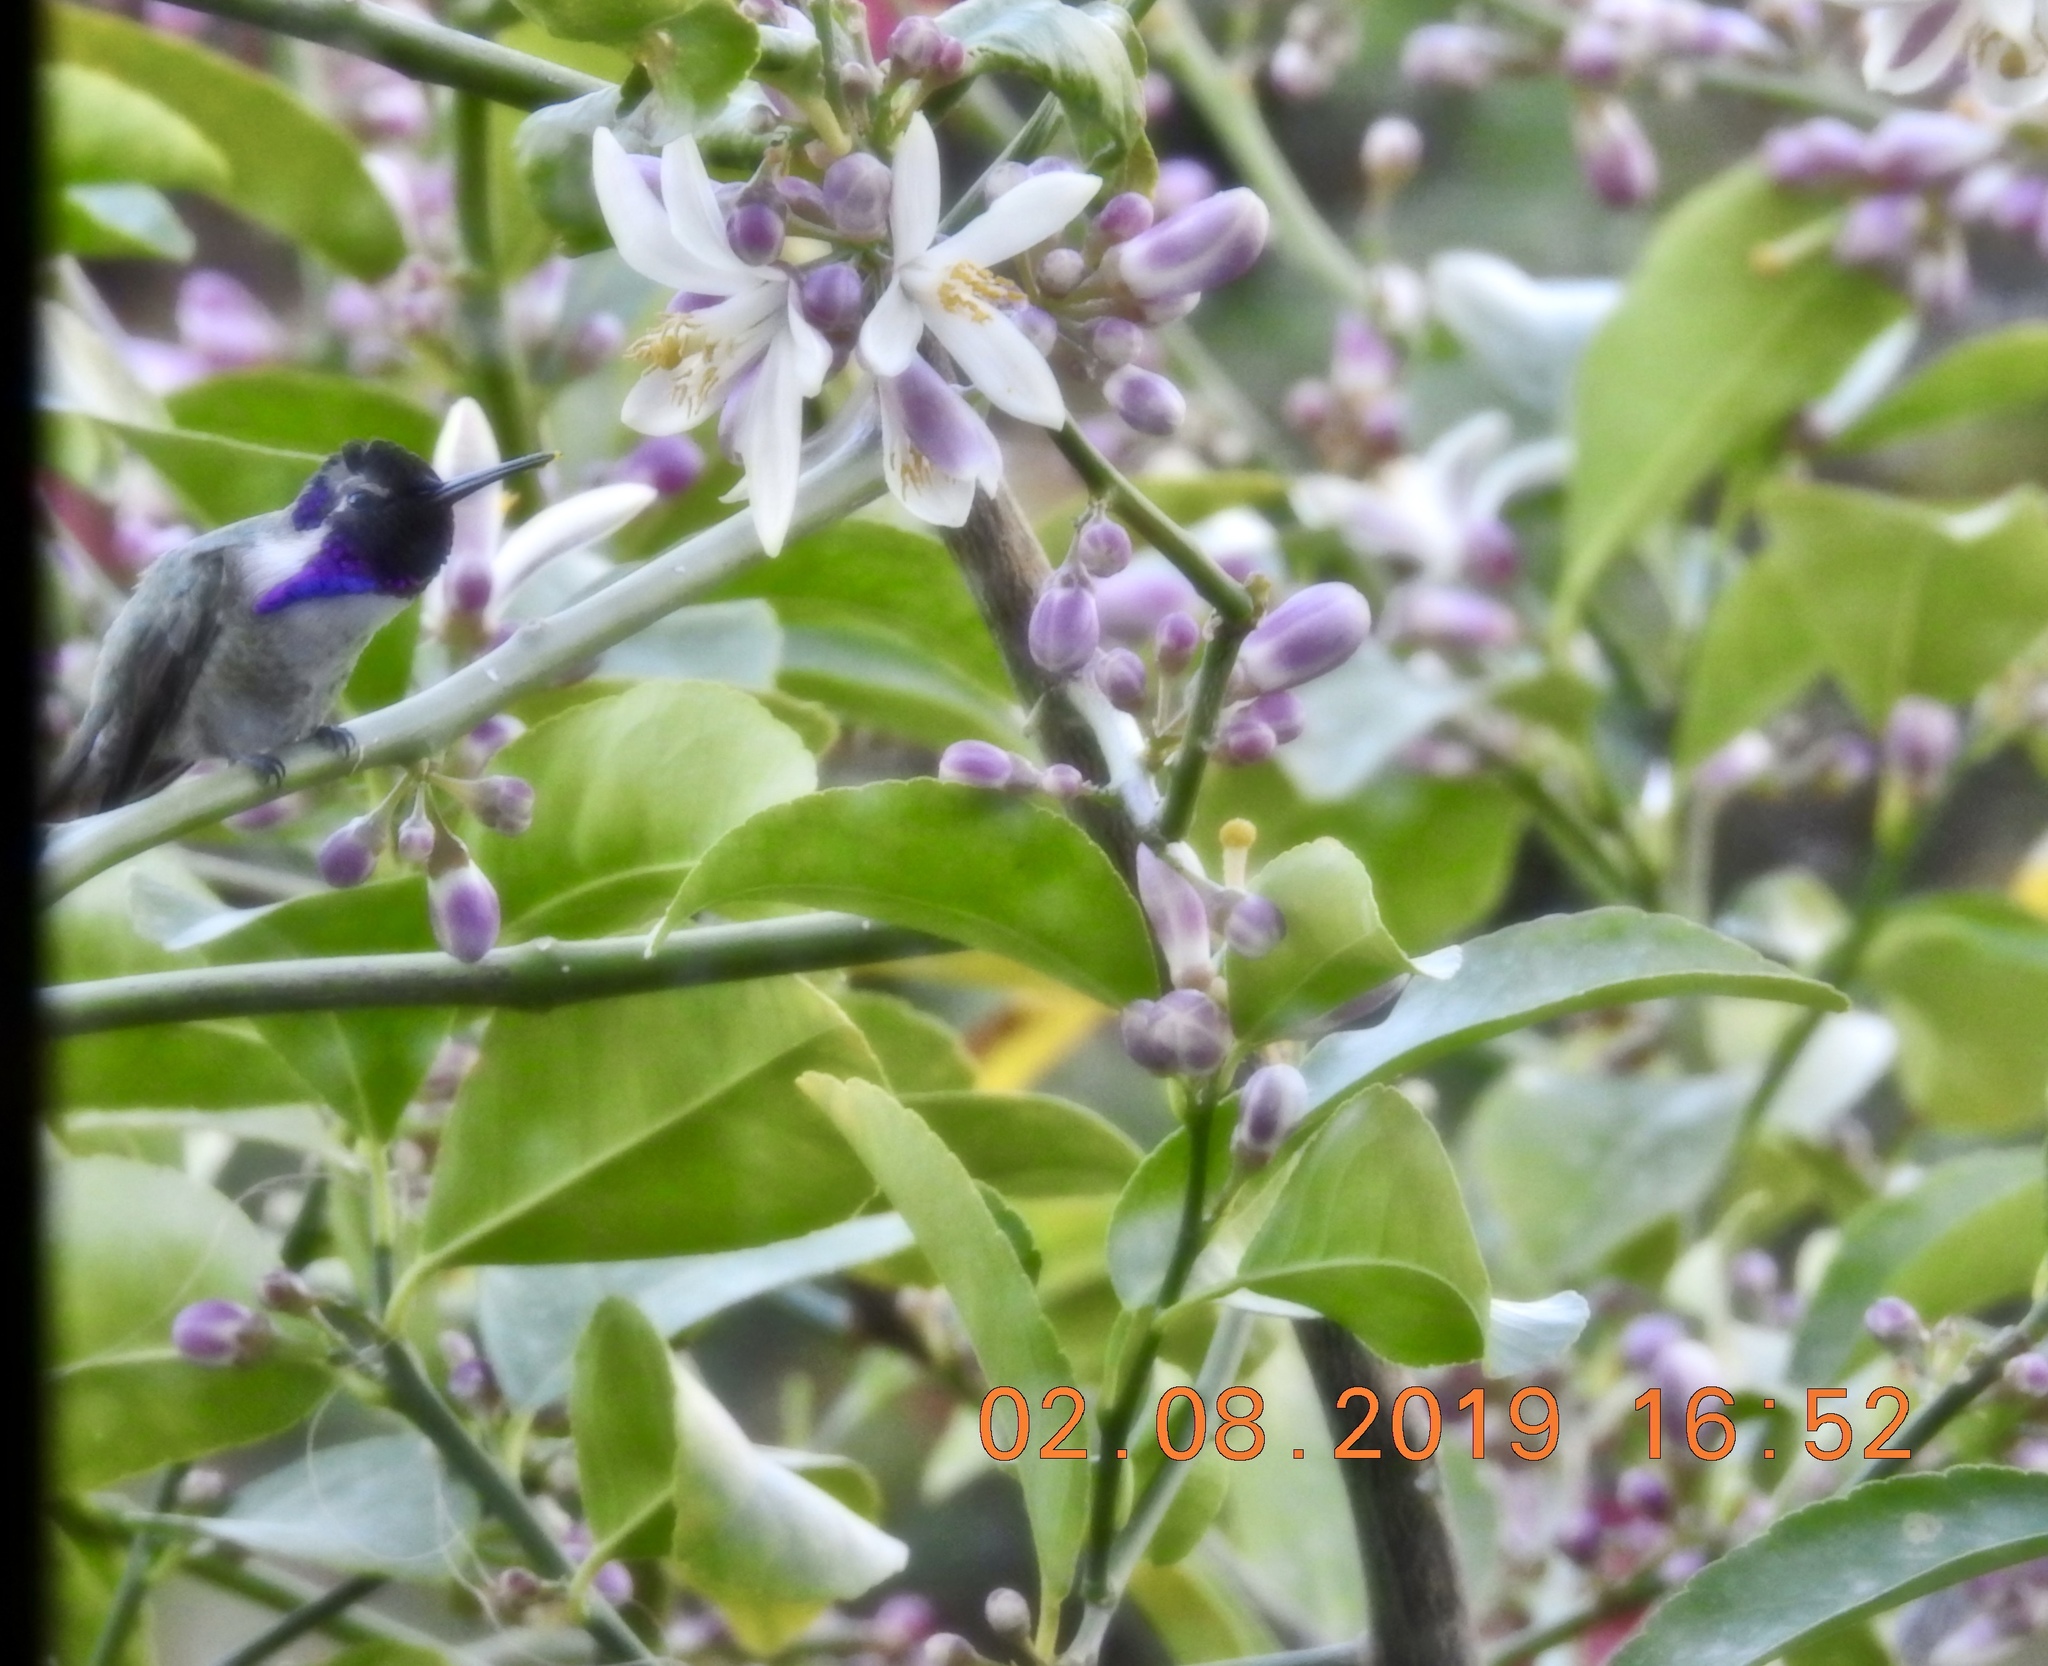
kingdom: Animalia
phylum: Chordata
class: Aves
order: Apodiformes
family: Trochilidae
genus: Calypte
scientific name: Calypte costae
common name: Costa's hummingbird
